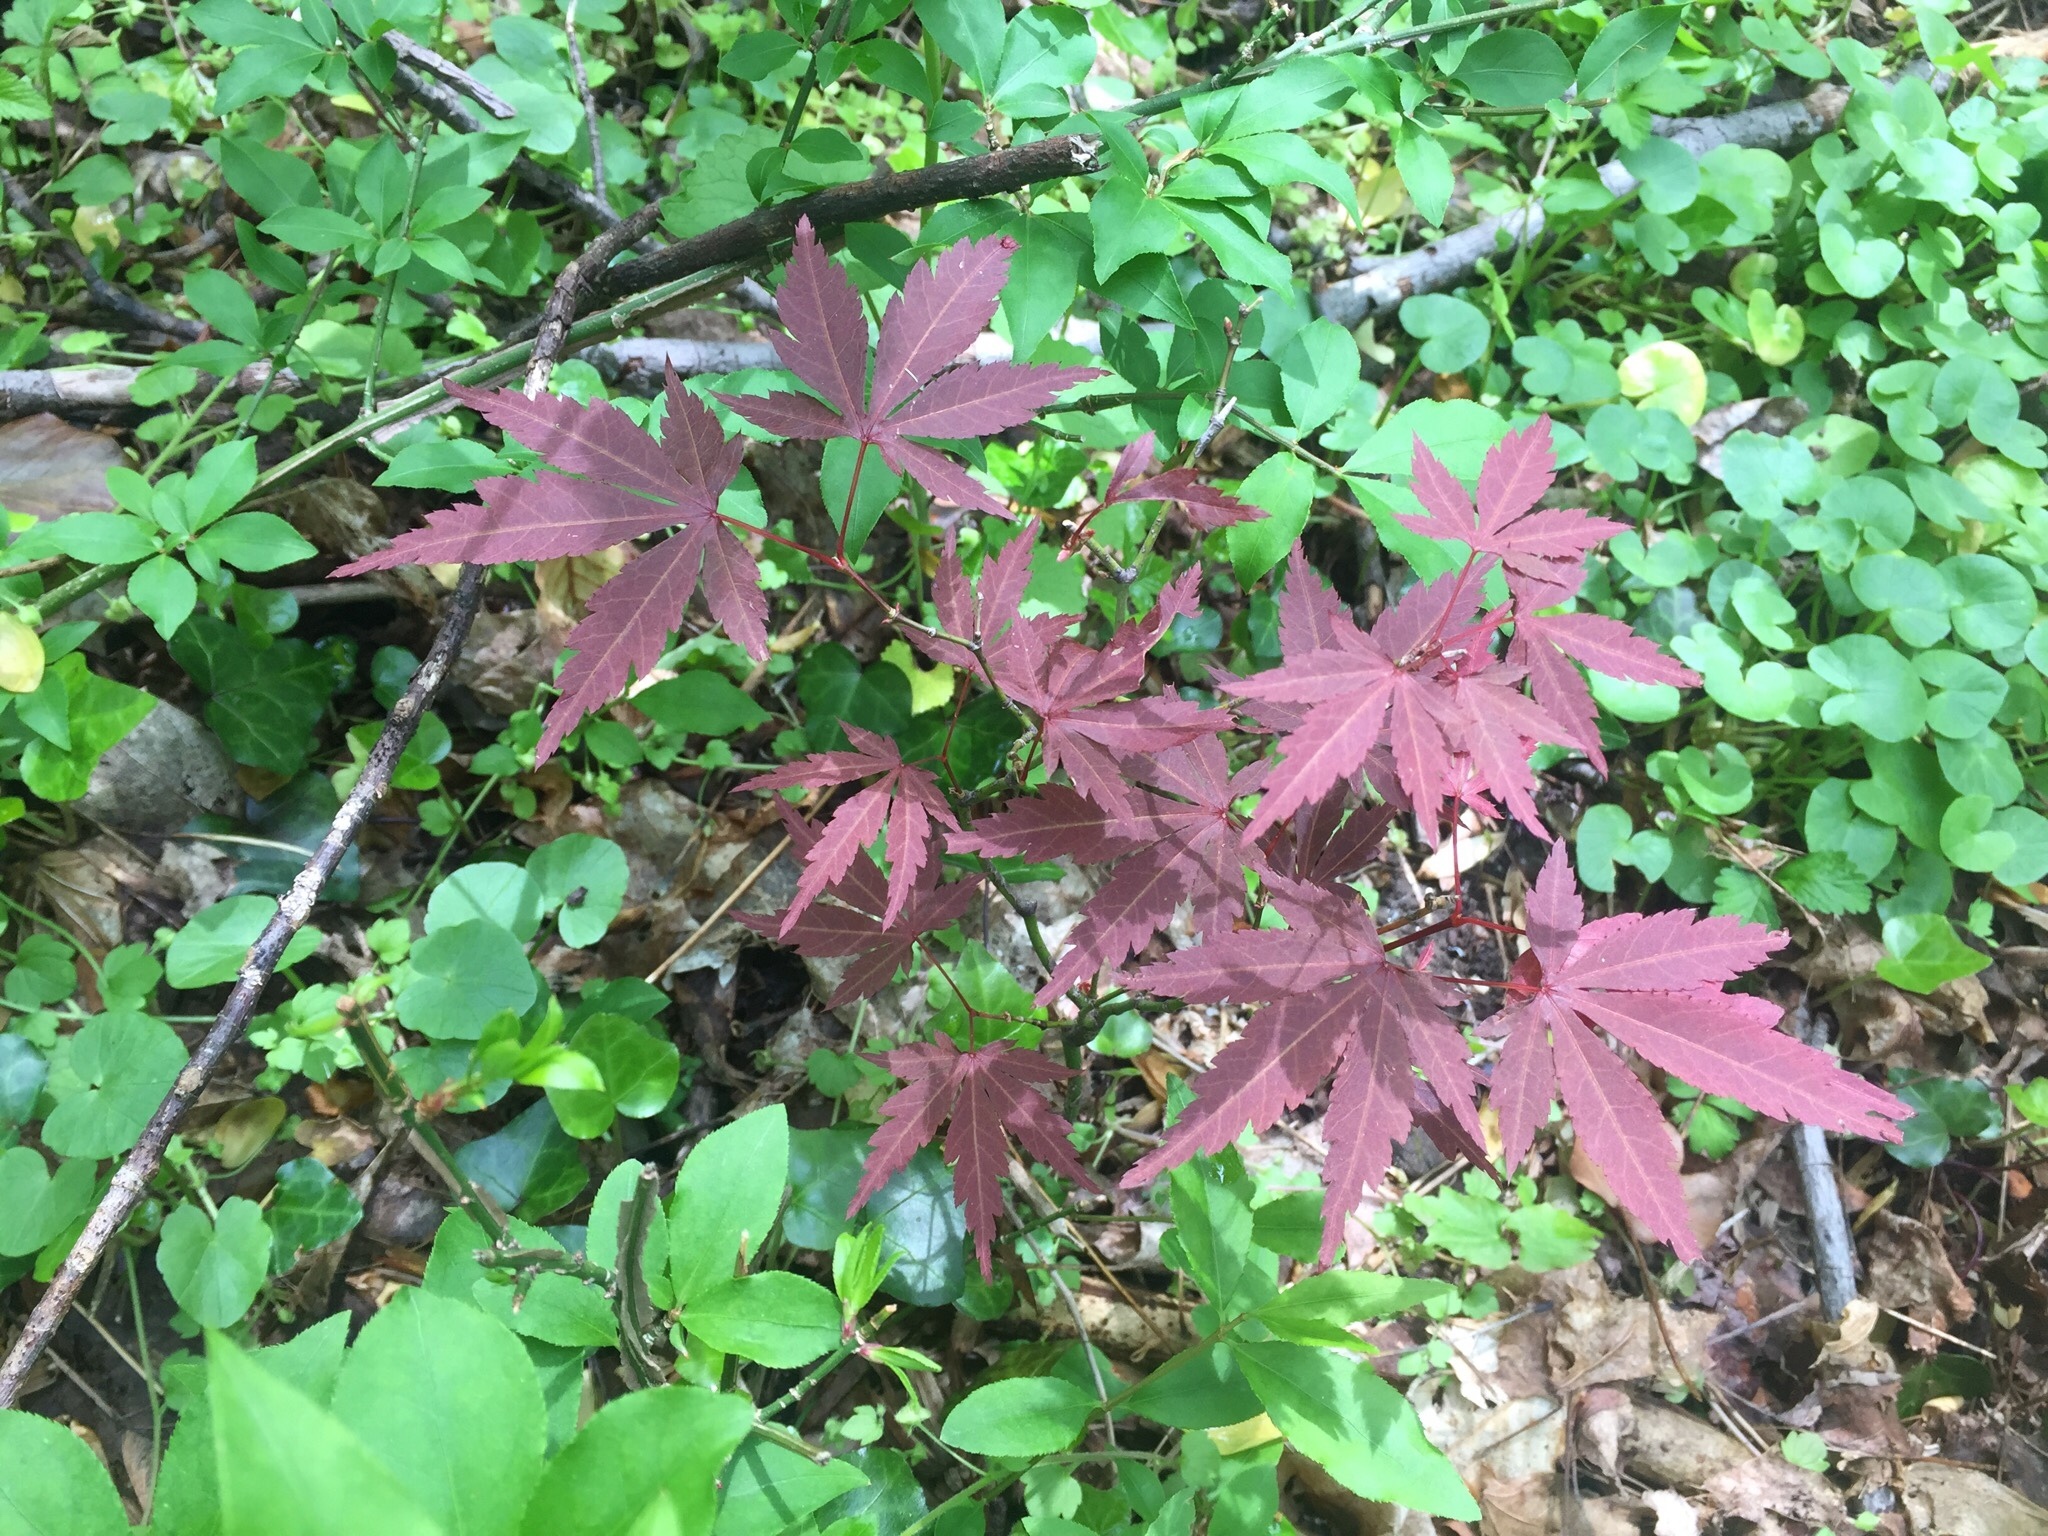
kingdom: Plantae
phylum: Tracheophyta
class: Magnoliopsida
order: Sapindales
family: Sapindaceae
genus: Acer
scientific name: Acer palmatum
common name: Japanese maple
